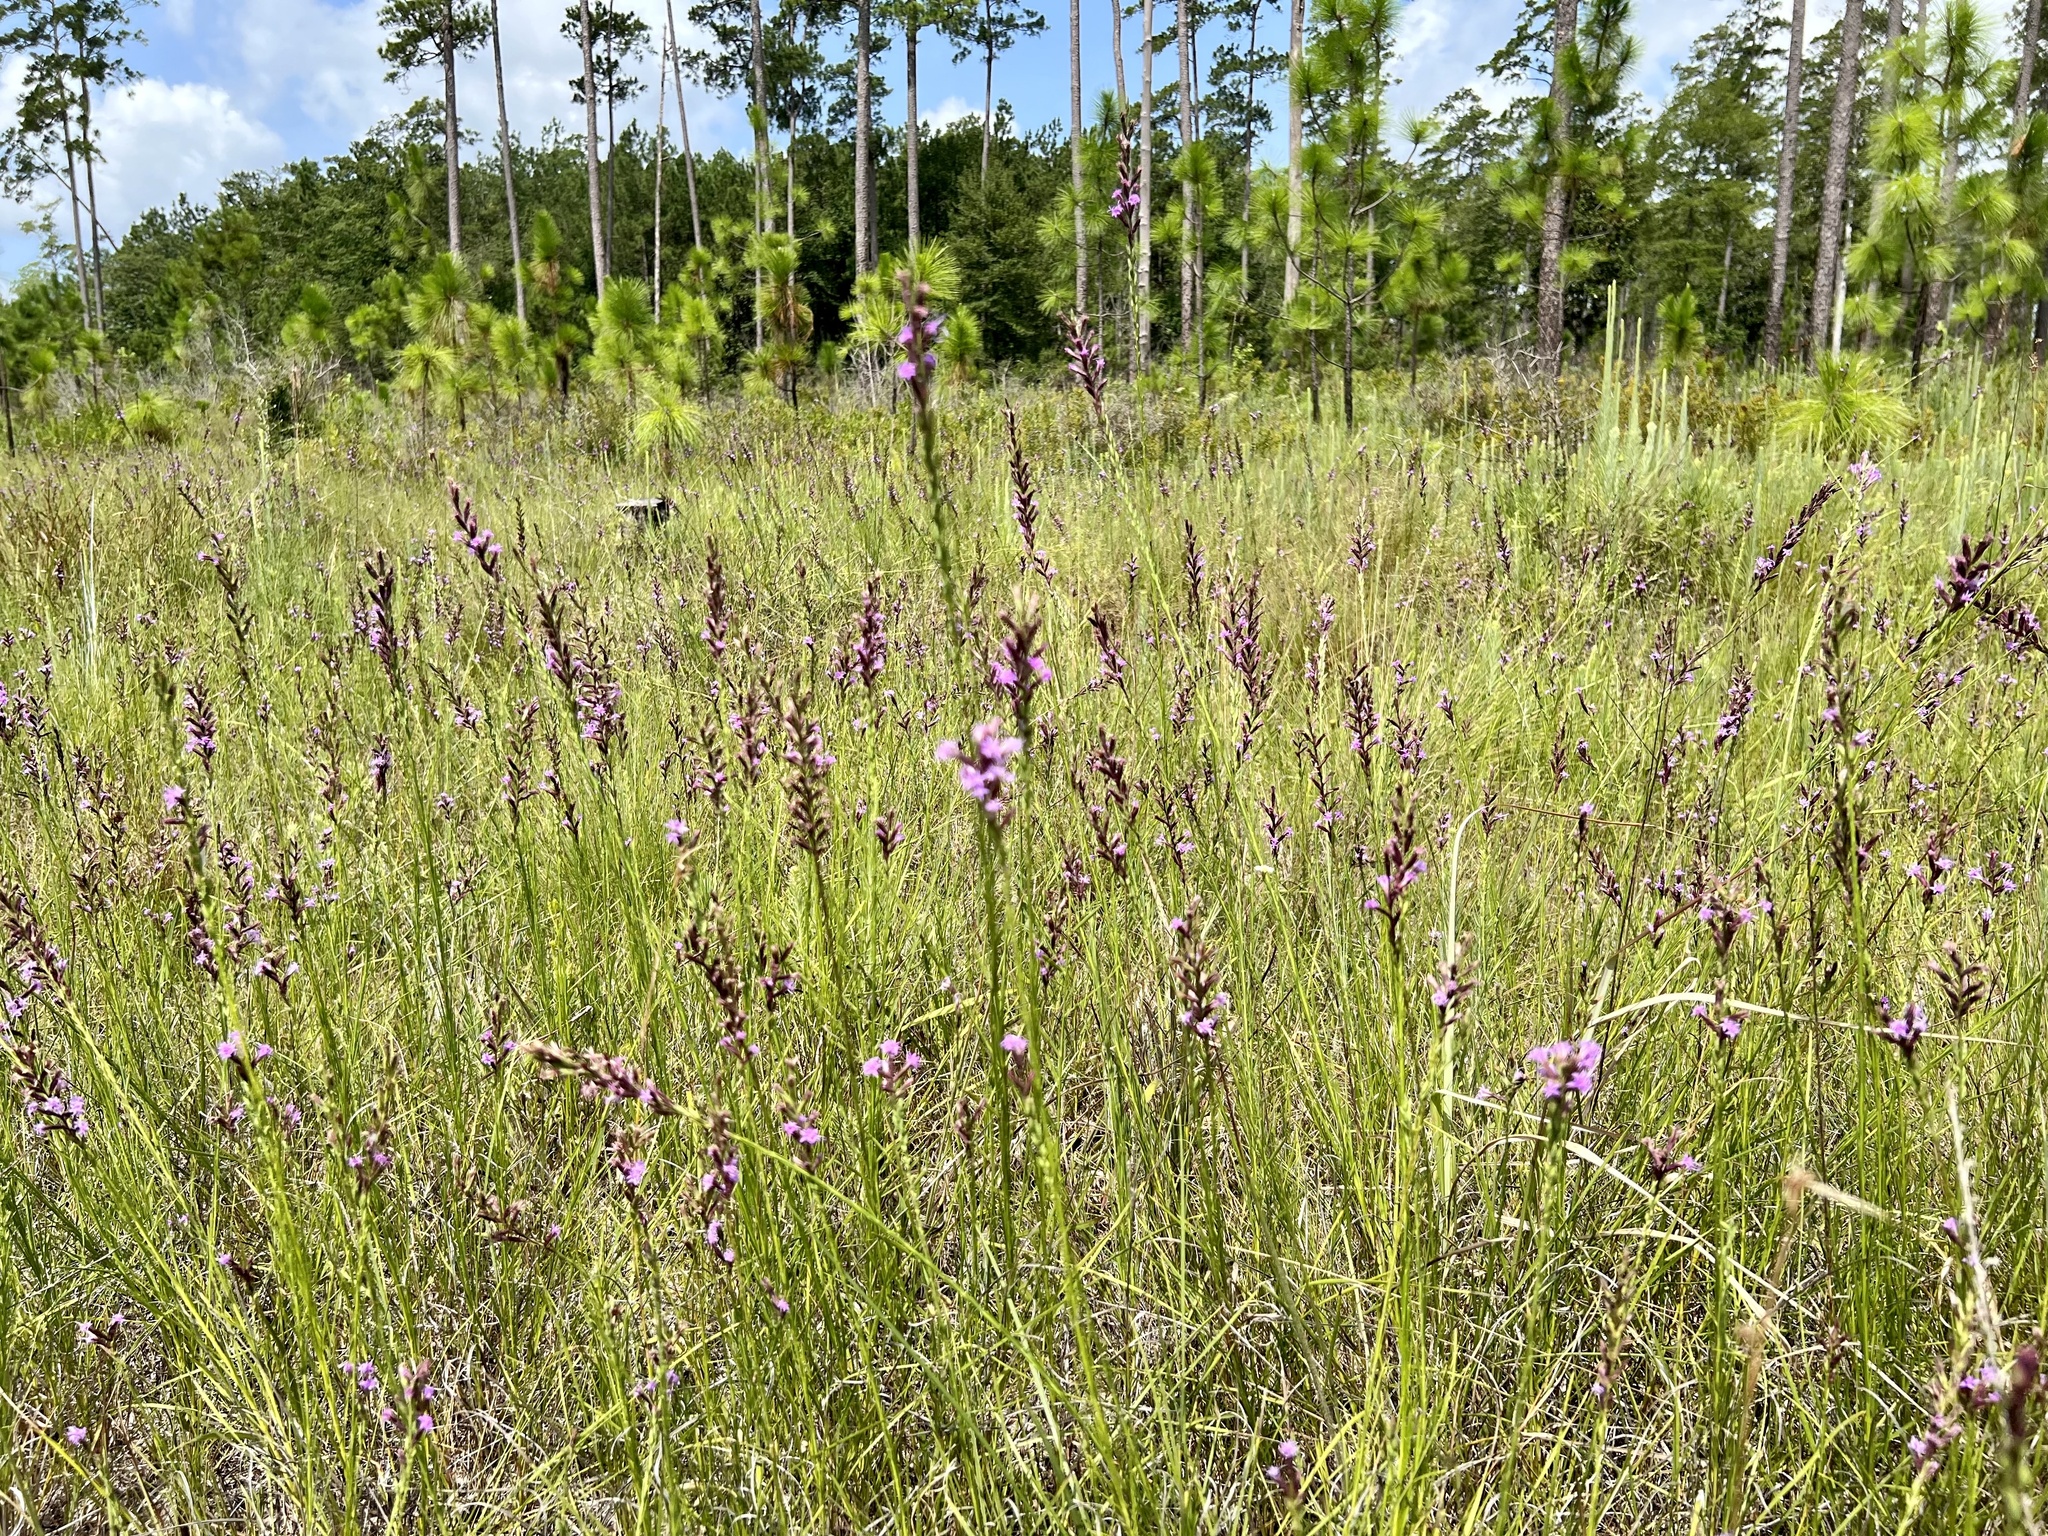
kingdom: Plantae
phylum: Tracheophyta
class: Magnoliopsida
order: Asterales
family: Asteraceae
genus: Liatris
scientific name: Liatris acidota
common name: Gulf coast gayfeather
